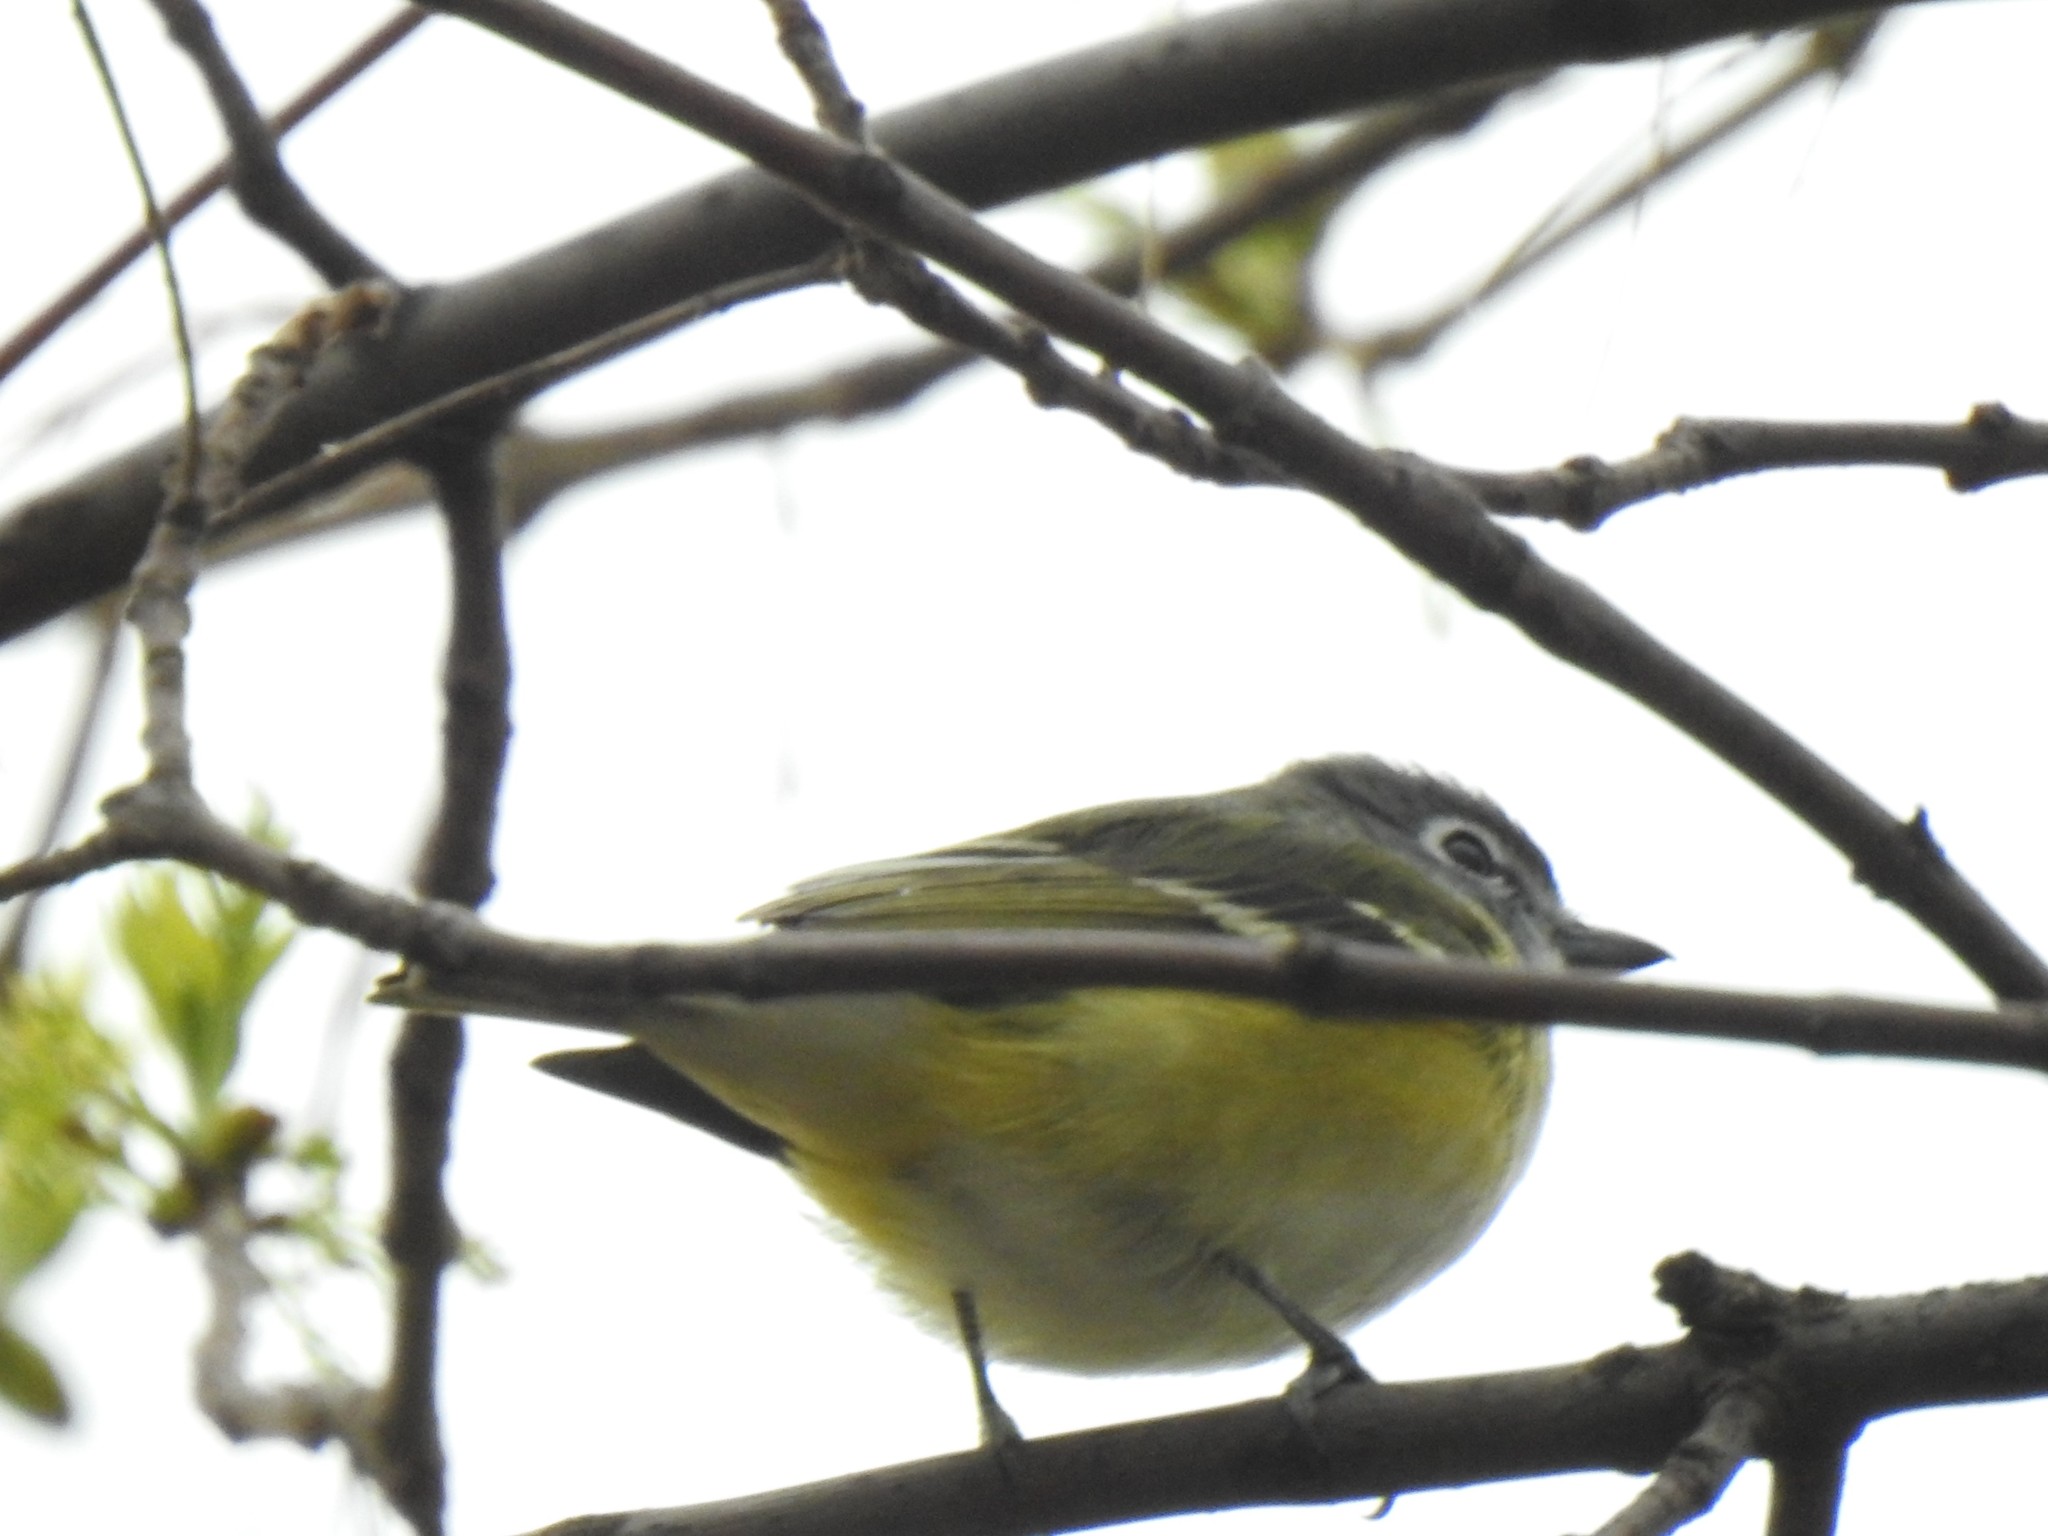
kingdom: Animalia
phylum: Chordata
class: Aves
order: Passeriformes
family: Vireonidae
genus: Vireo
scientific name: Vireo solitarius
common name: Blue-headed vireo
